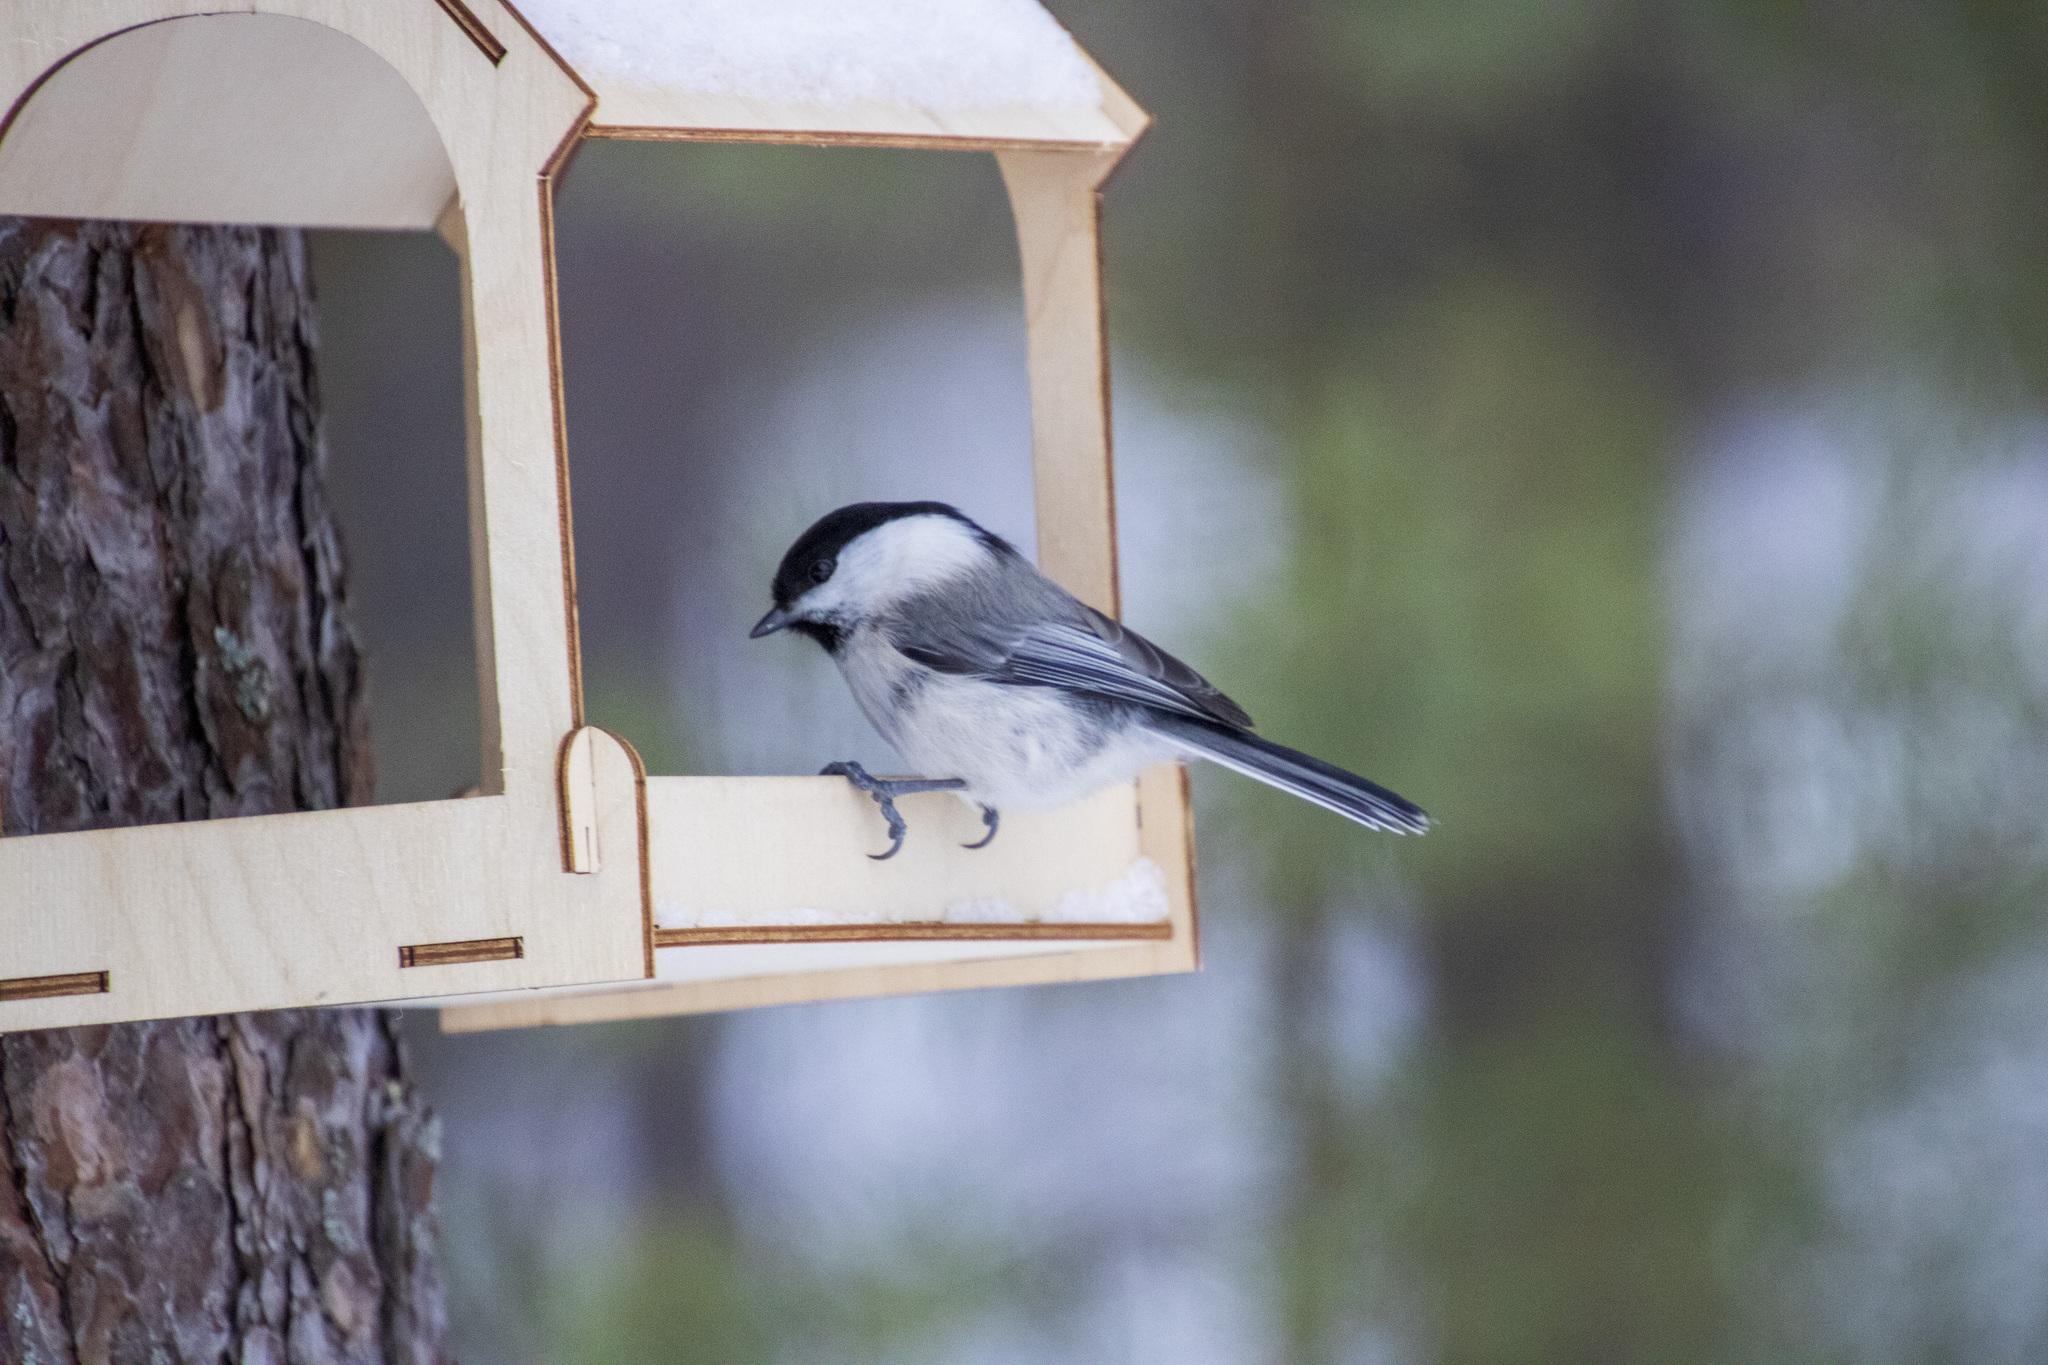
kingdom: Animalia
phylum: Chordata
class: Aves
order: Passeriformes
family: Paridae
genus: Poecile
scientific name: Poecile montanus
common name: Willow tit
